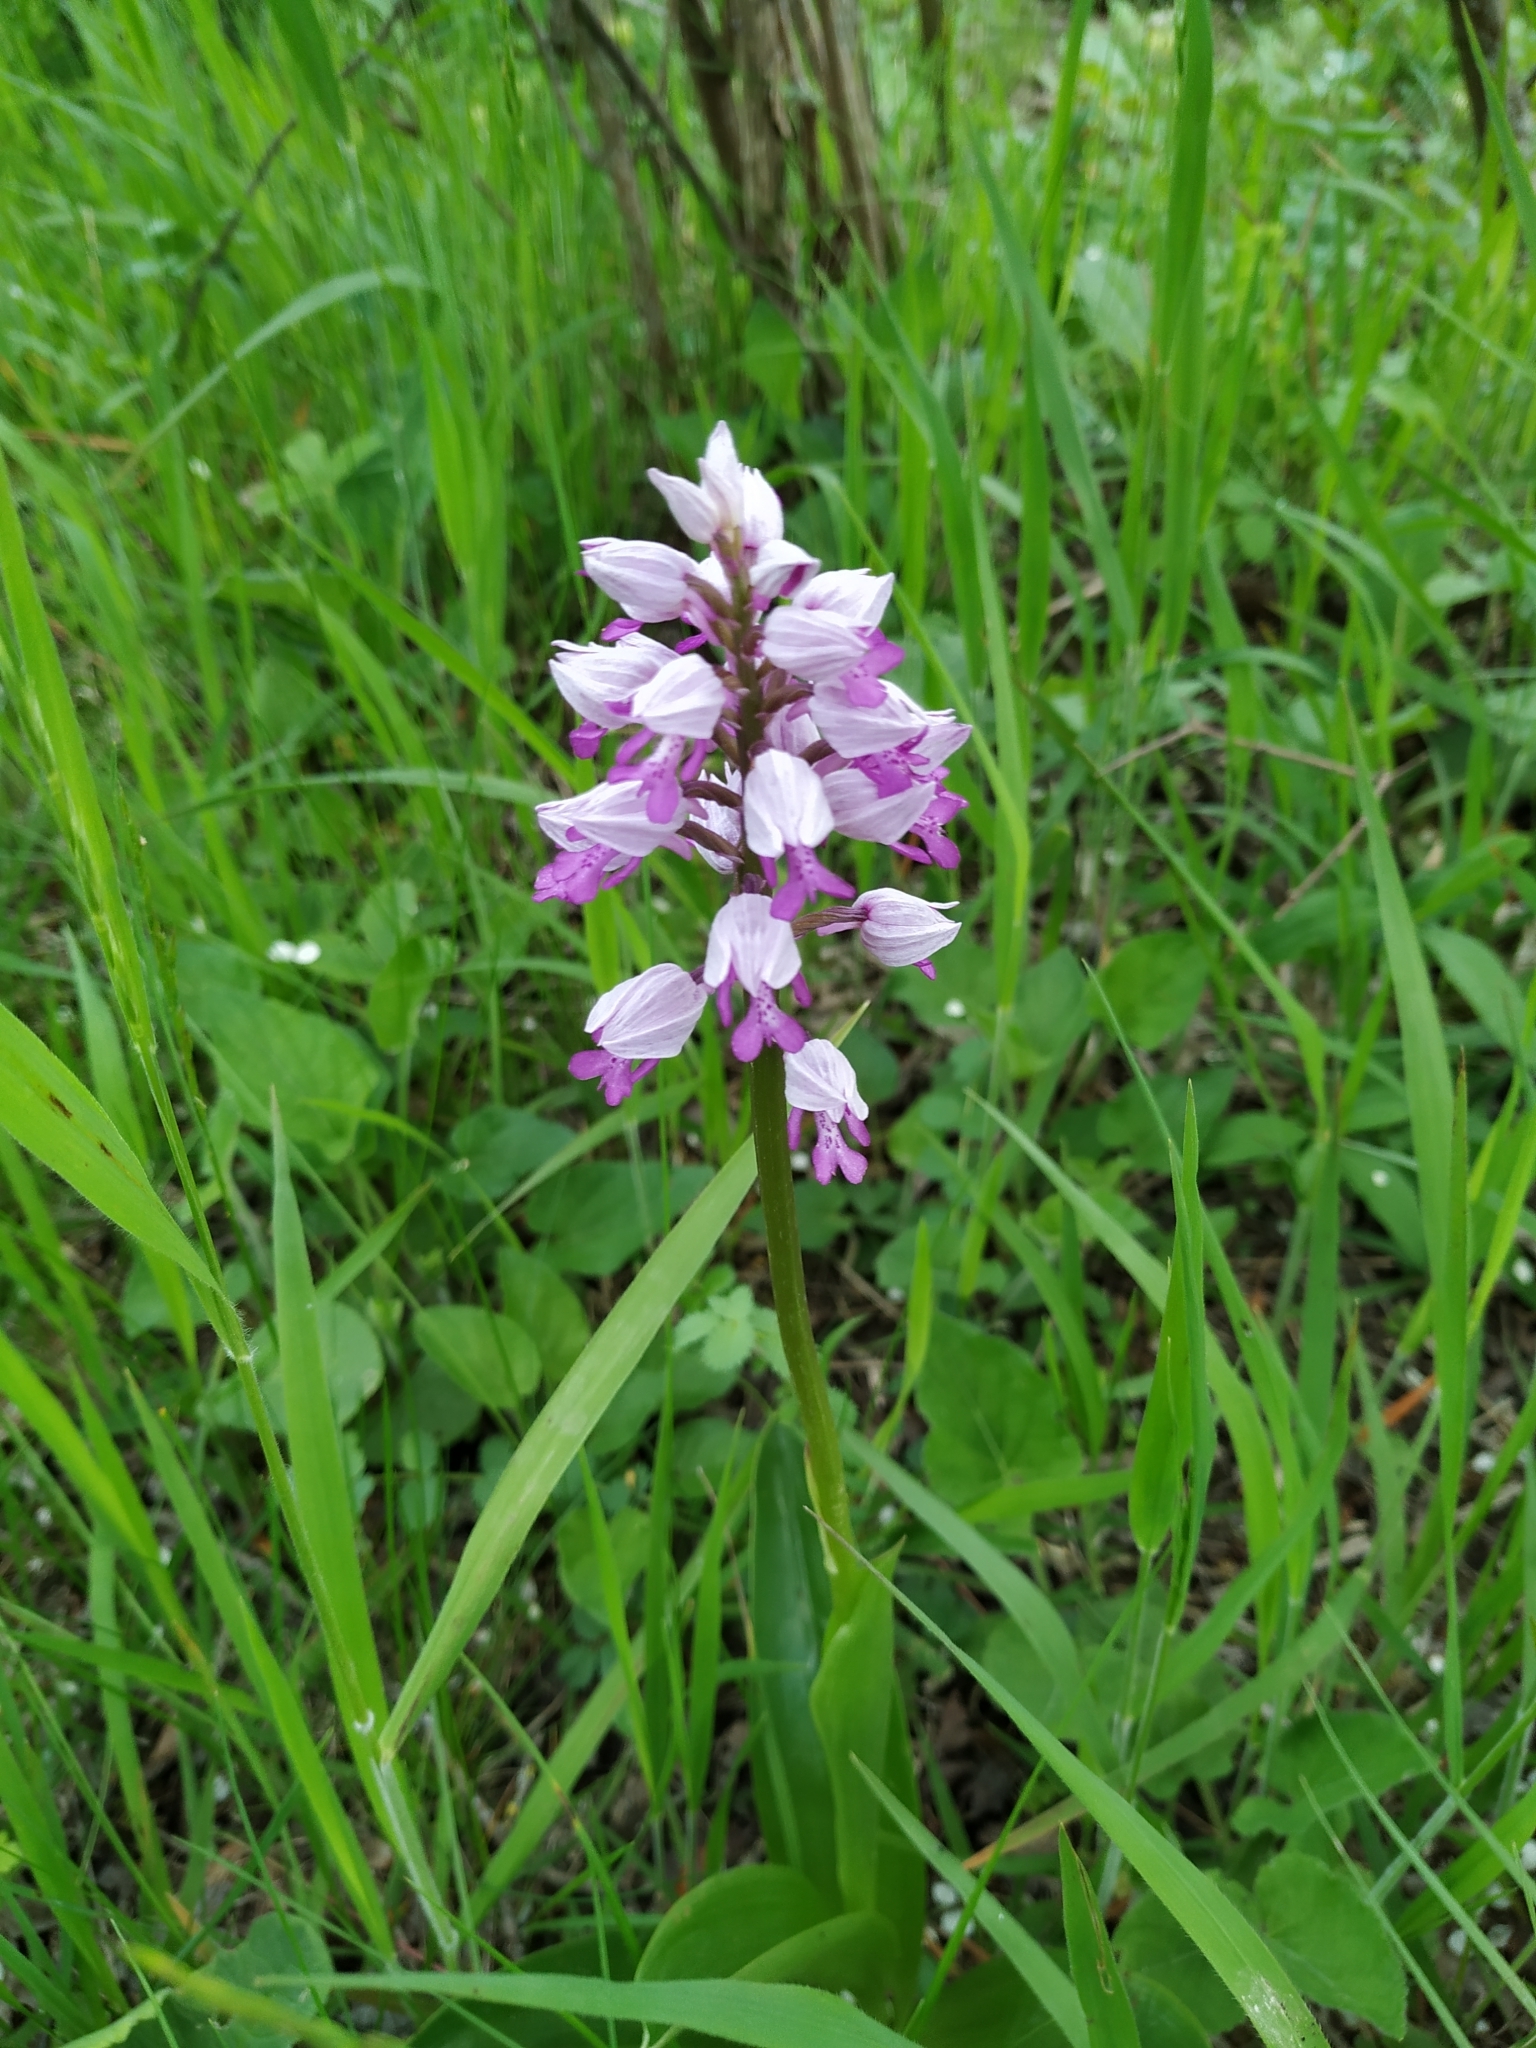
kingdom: Plantae
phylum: Tracheophyta
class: Liliopsida
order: Asparagales
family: Orchidaceae
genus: Orchis
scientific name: Orchis militaris
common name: Military orchid
